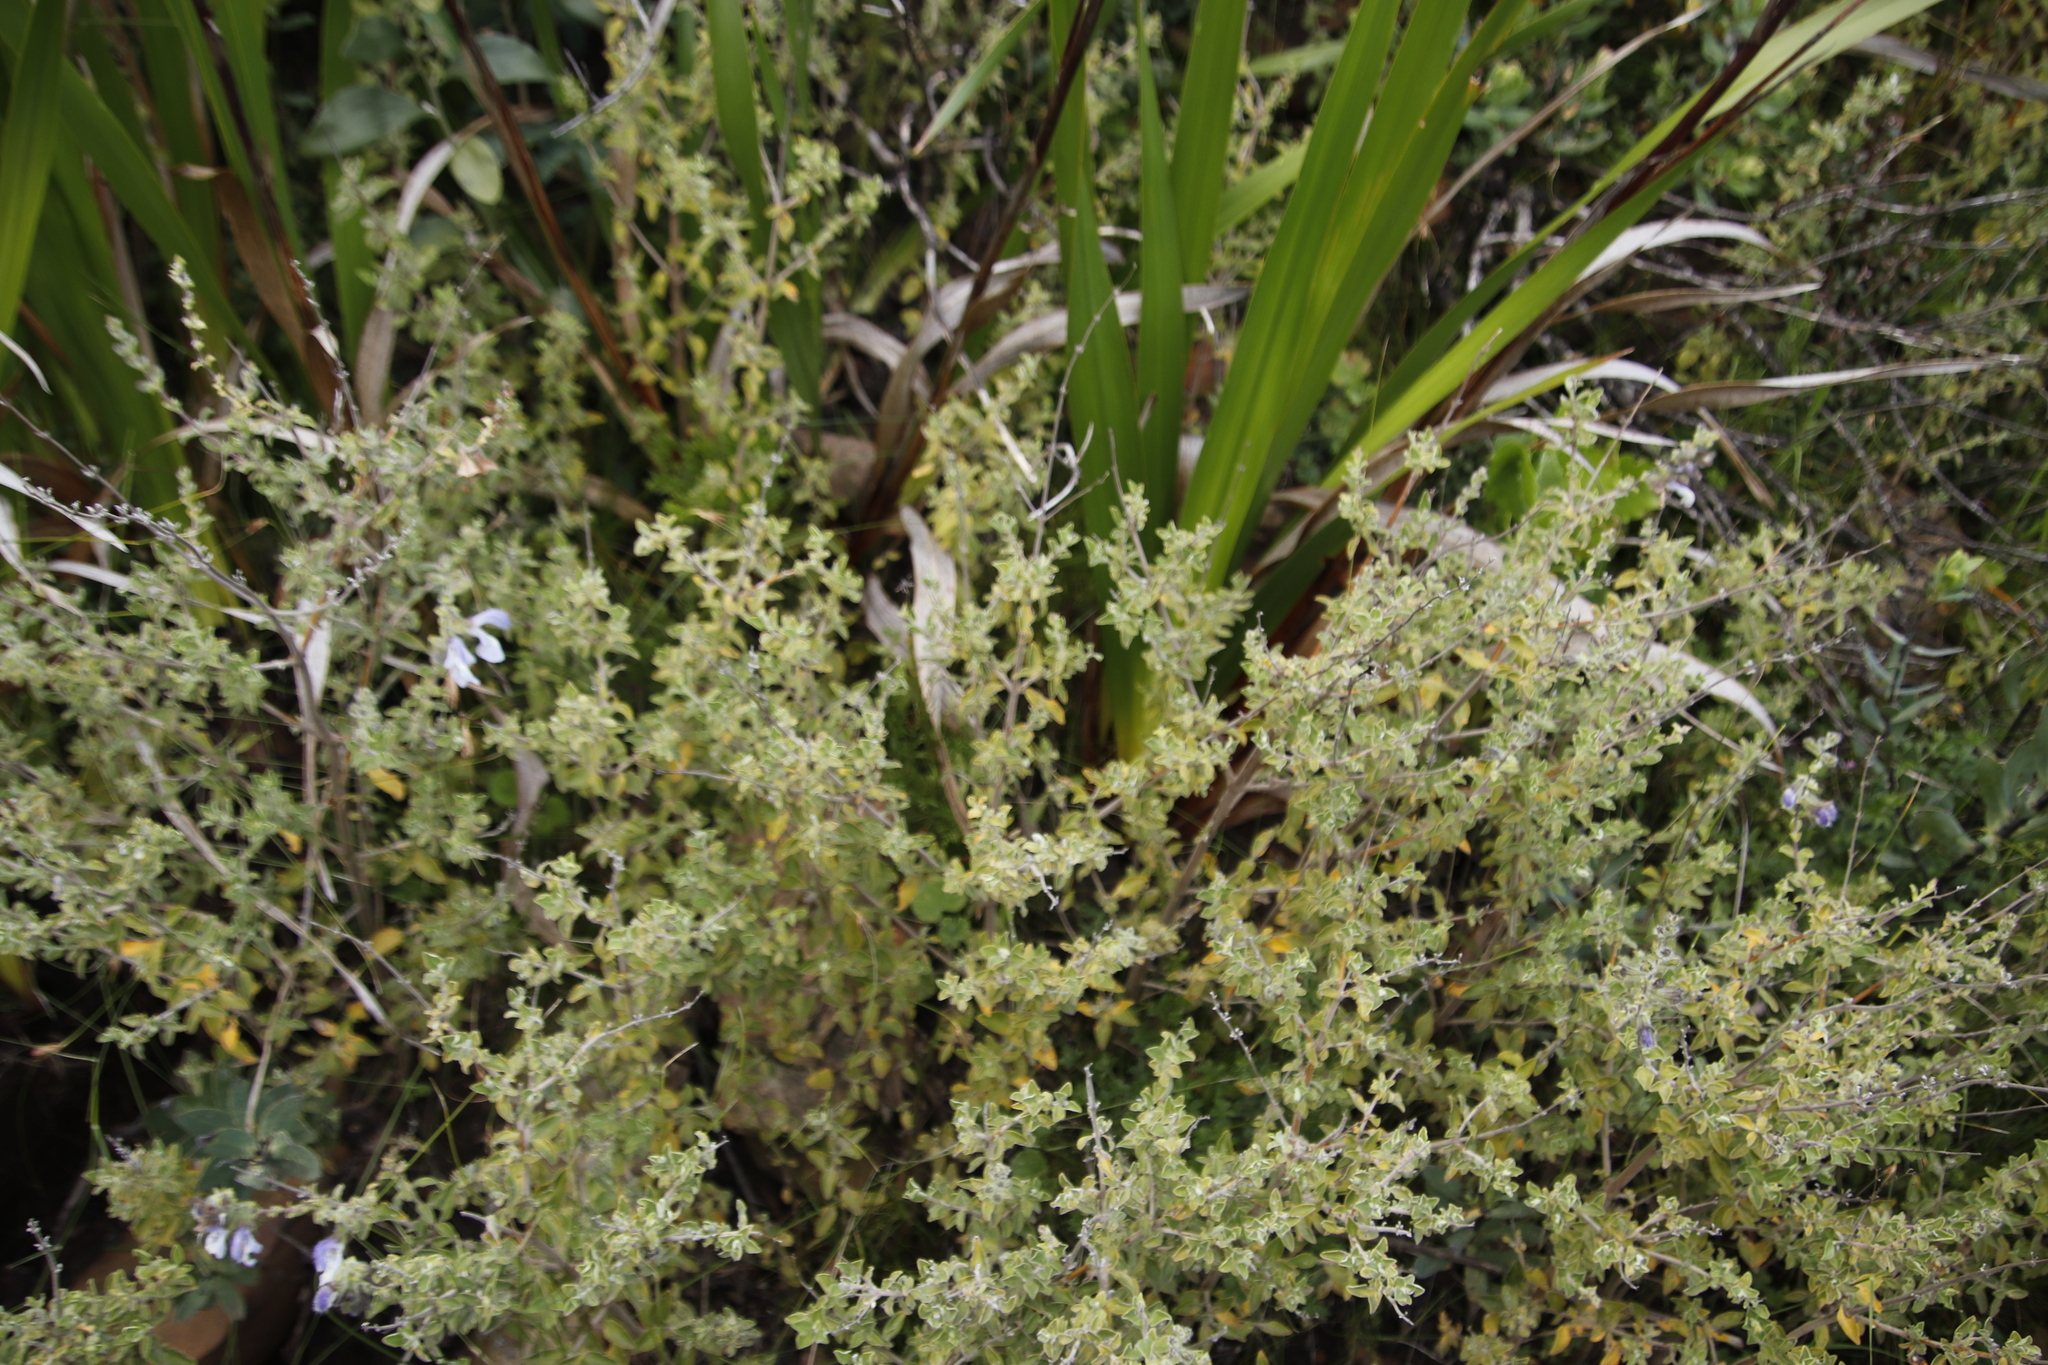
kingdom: Plantae
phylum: Tracheophyta
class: Magnoliopsida
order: Lamiales
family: Lamiaceae
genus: Salvia
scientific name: Salvia africana
